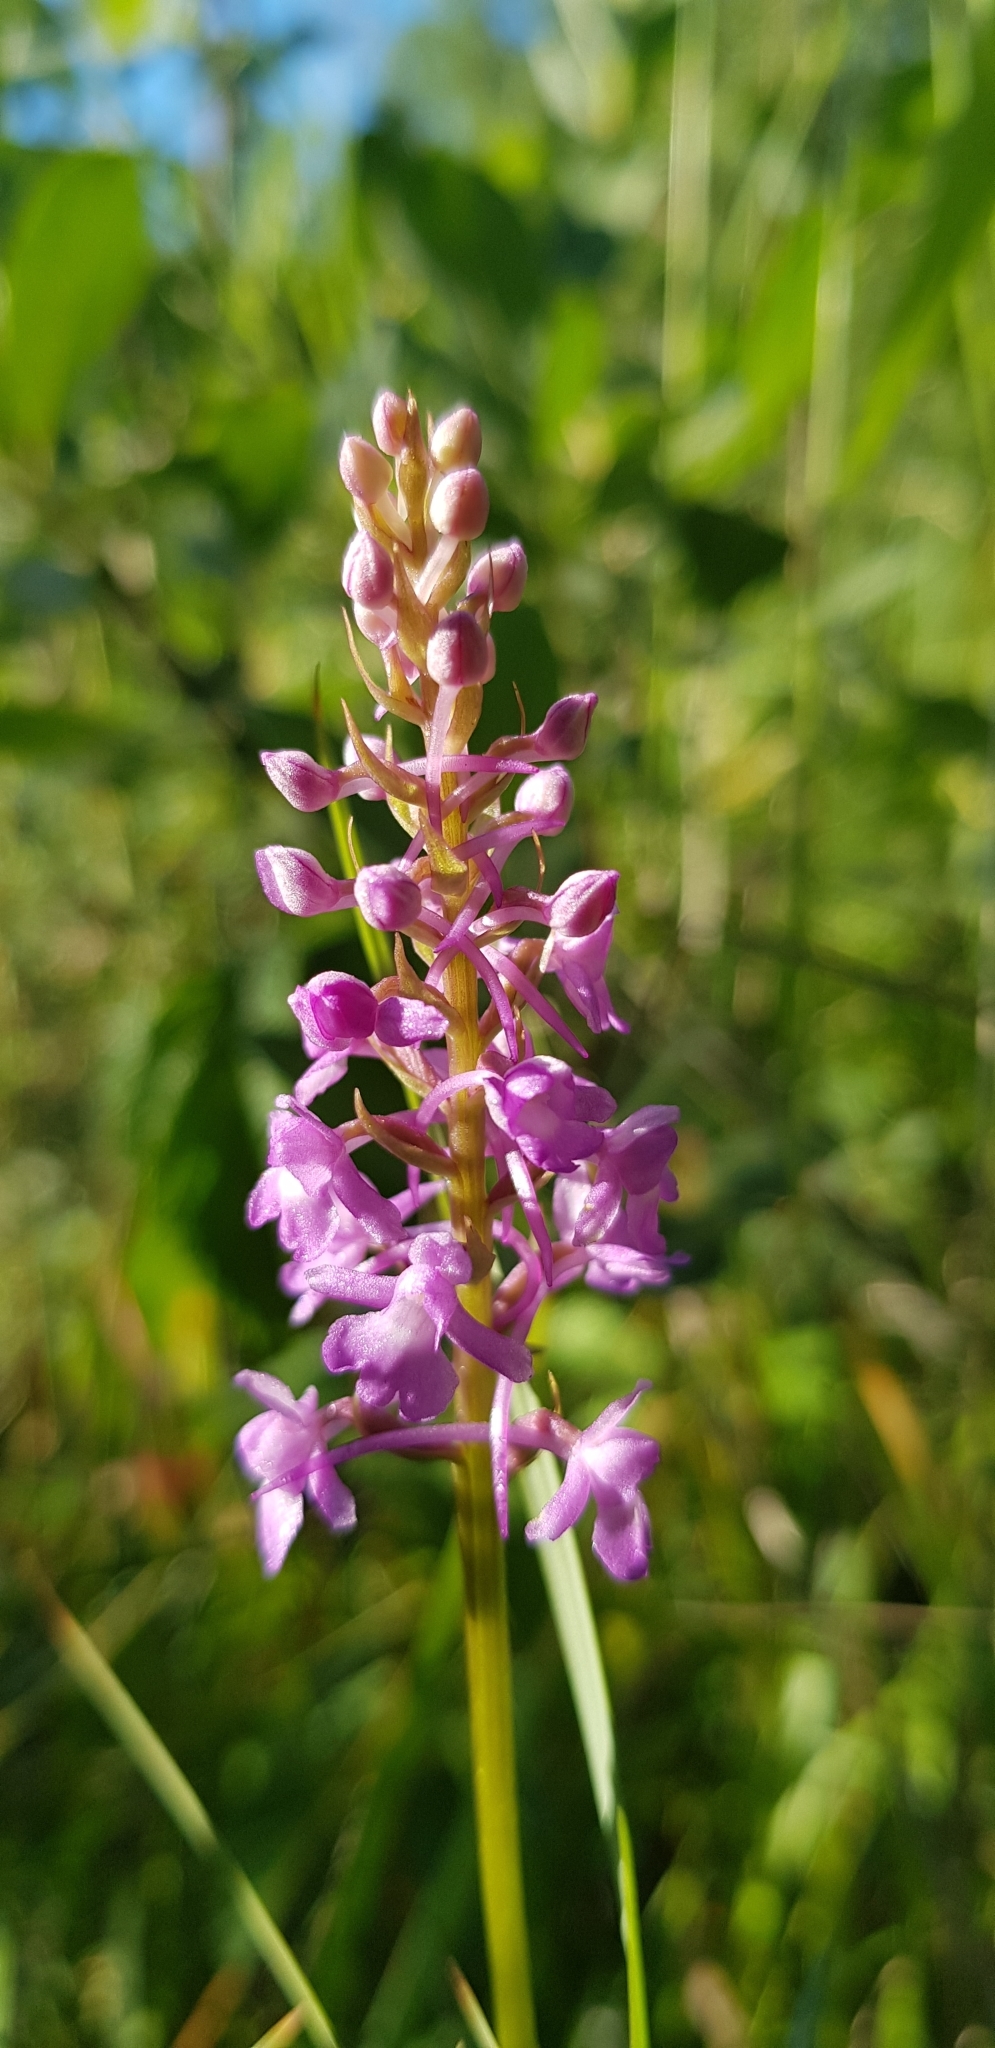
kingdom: Plantae
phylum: Tracheophyta
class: Liliopsida
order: Asparagales
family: Orchidaceae
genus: Gymnadenia
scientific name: Gymnadenia conopsea
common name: Fragrant orchid
